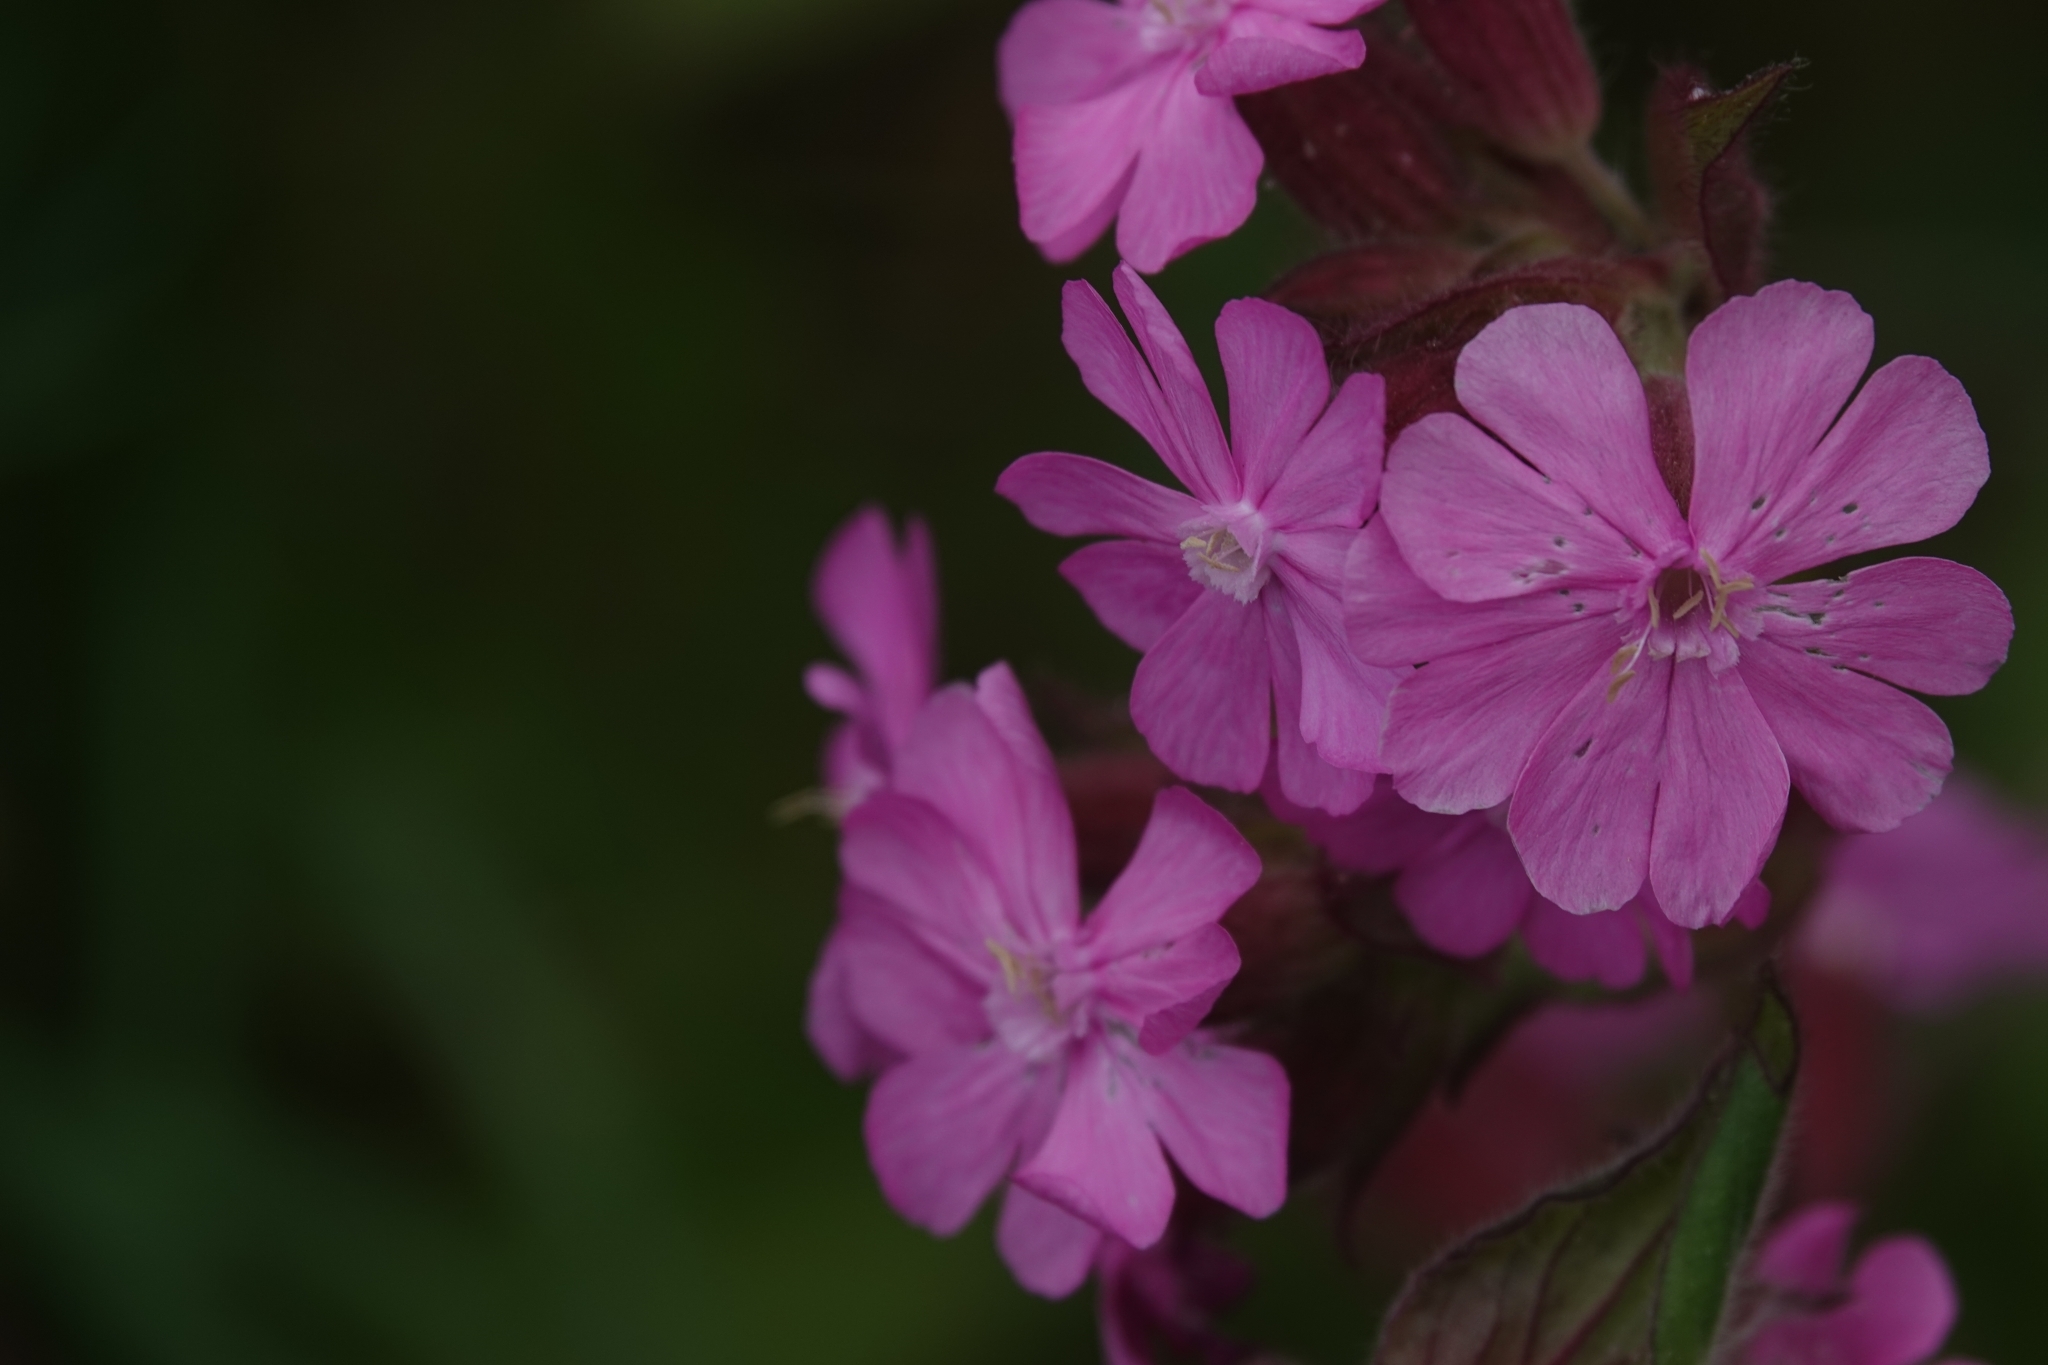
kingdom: Plantae
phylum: Tracheophyta
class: Magnoliopsida
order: Caryophyllales
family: Caryophyllaceae
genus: Silene
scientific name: Silene dioica
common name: Red campion
